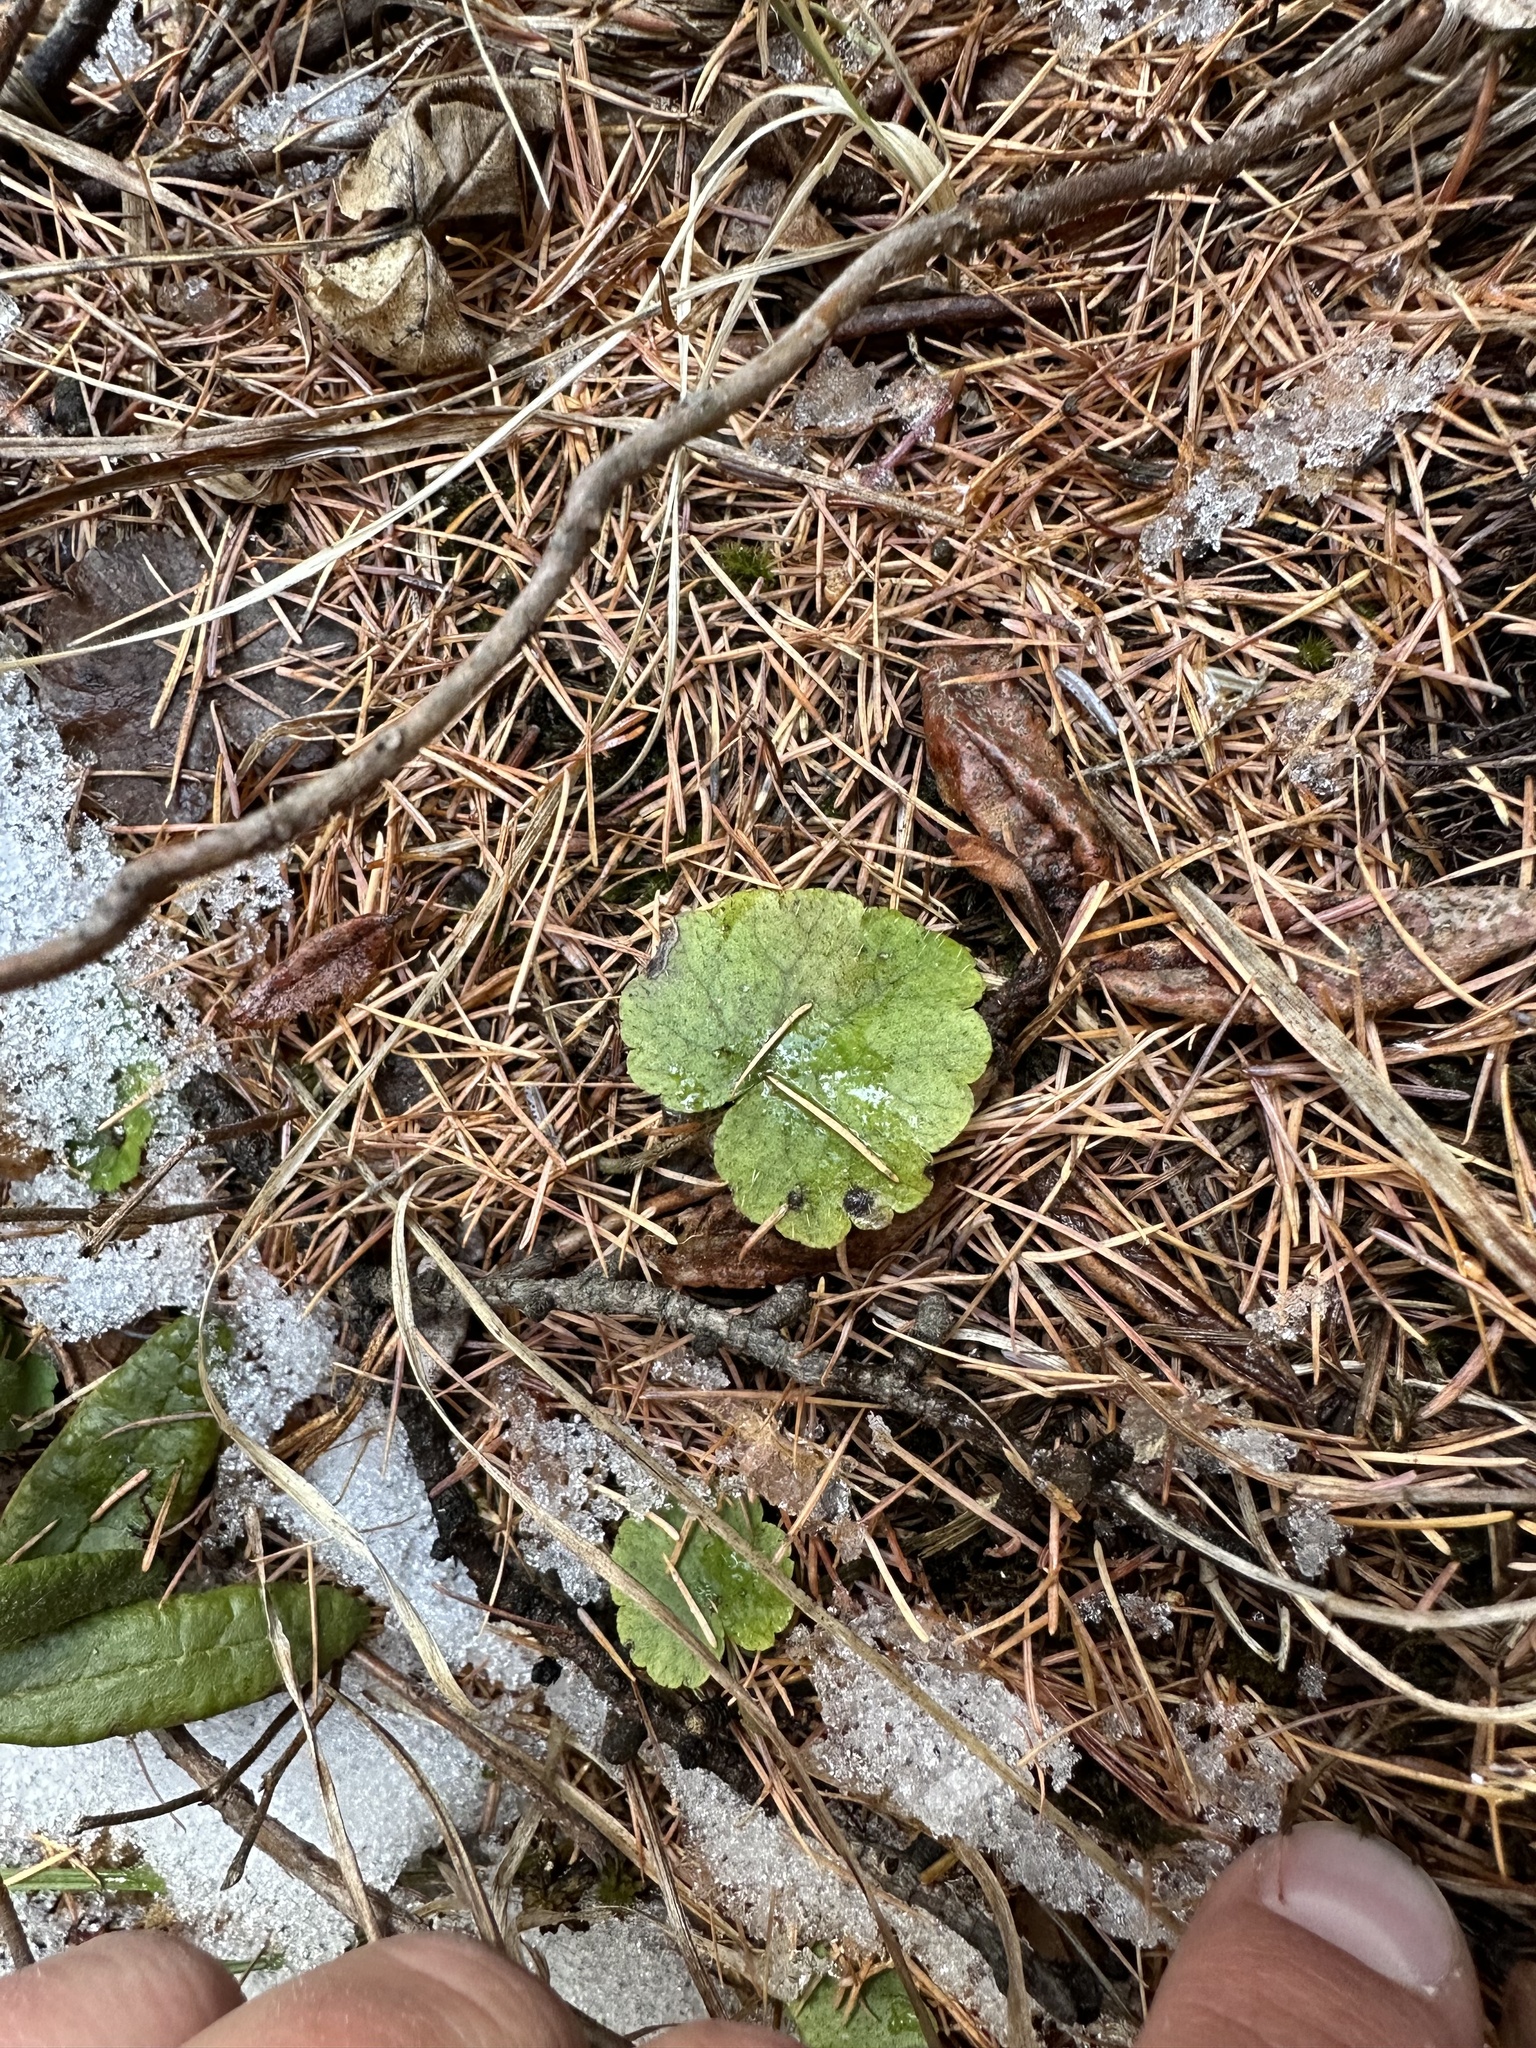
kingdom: Plantae
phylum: Tracheophyta
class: Magnoliopsida
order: Saxifragales
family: Saxifragaceae
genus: Mitella
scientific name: Mitella nuda
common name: Bare-stemmed bishop's-cap
